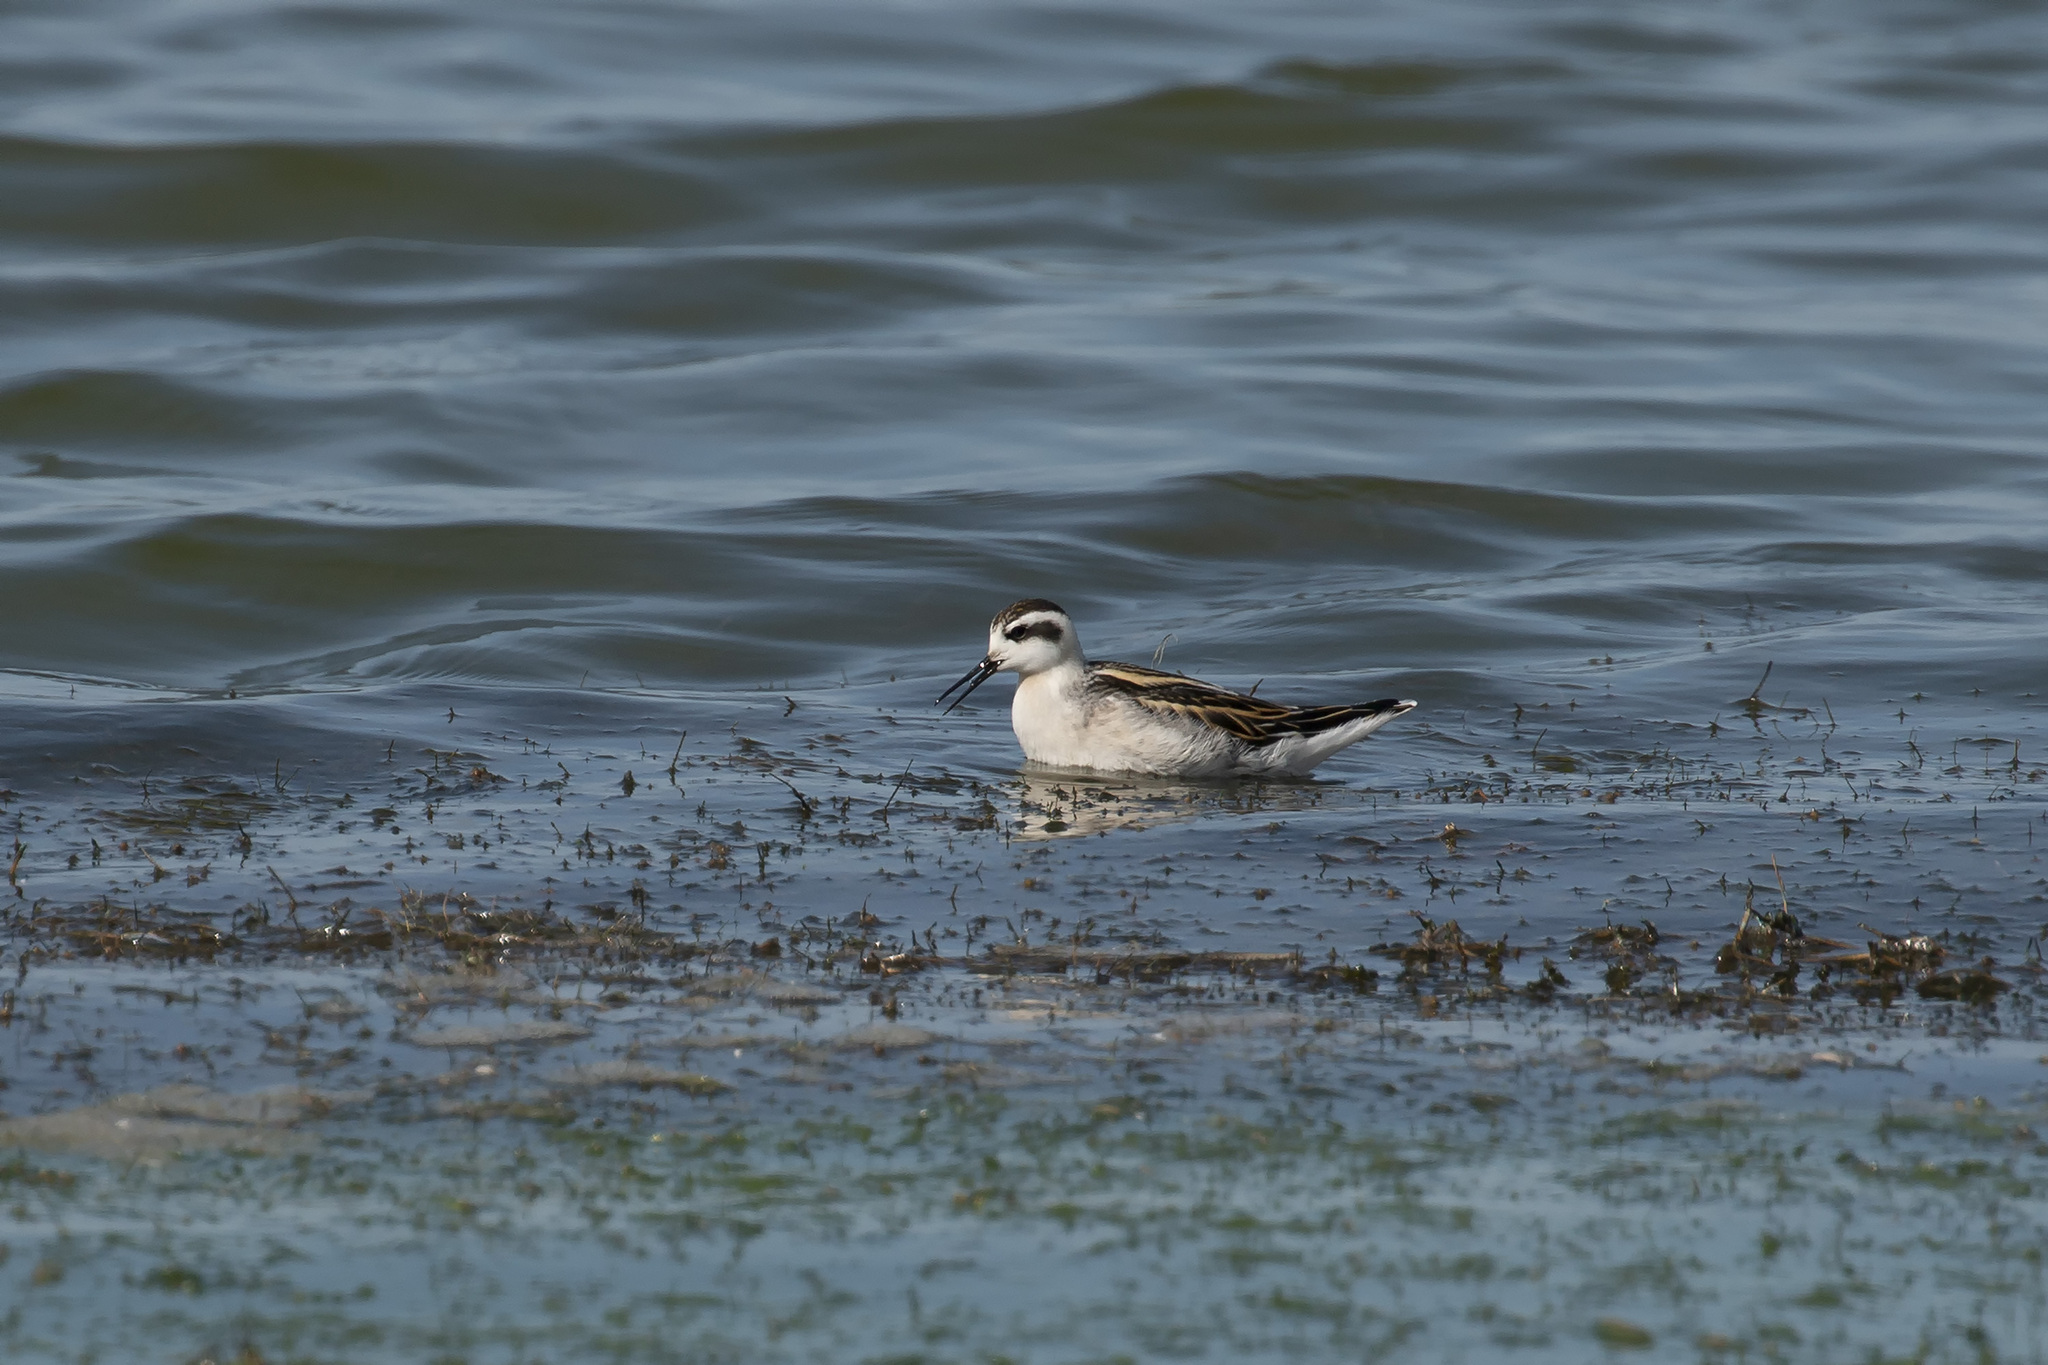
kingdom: Animalia
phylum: Chordata
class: Aves
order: Charadriiformes
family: Scolopacidae
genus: Phalaropus
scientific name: Phalaropus lobatus
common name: Red-necked phalarope
